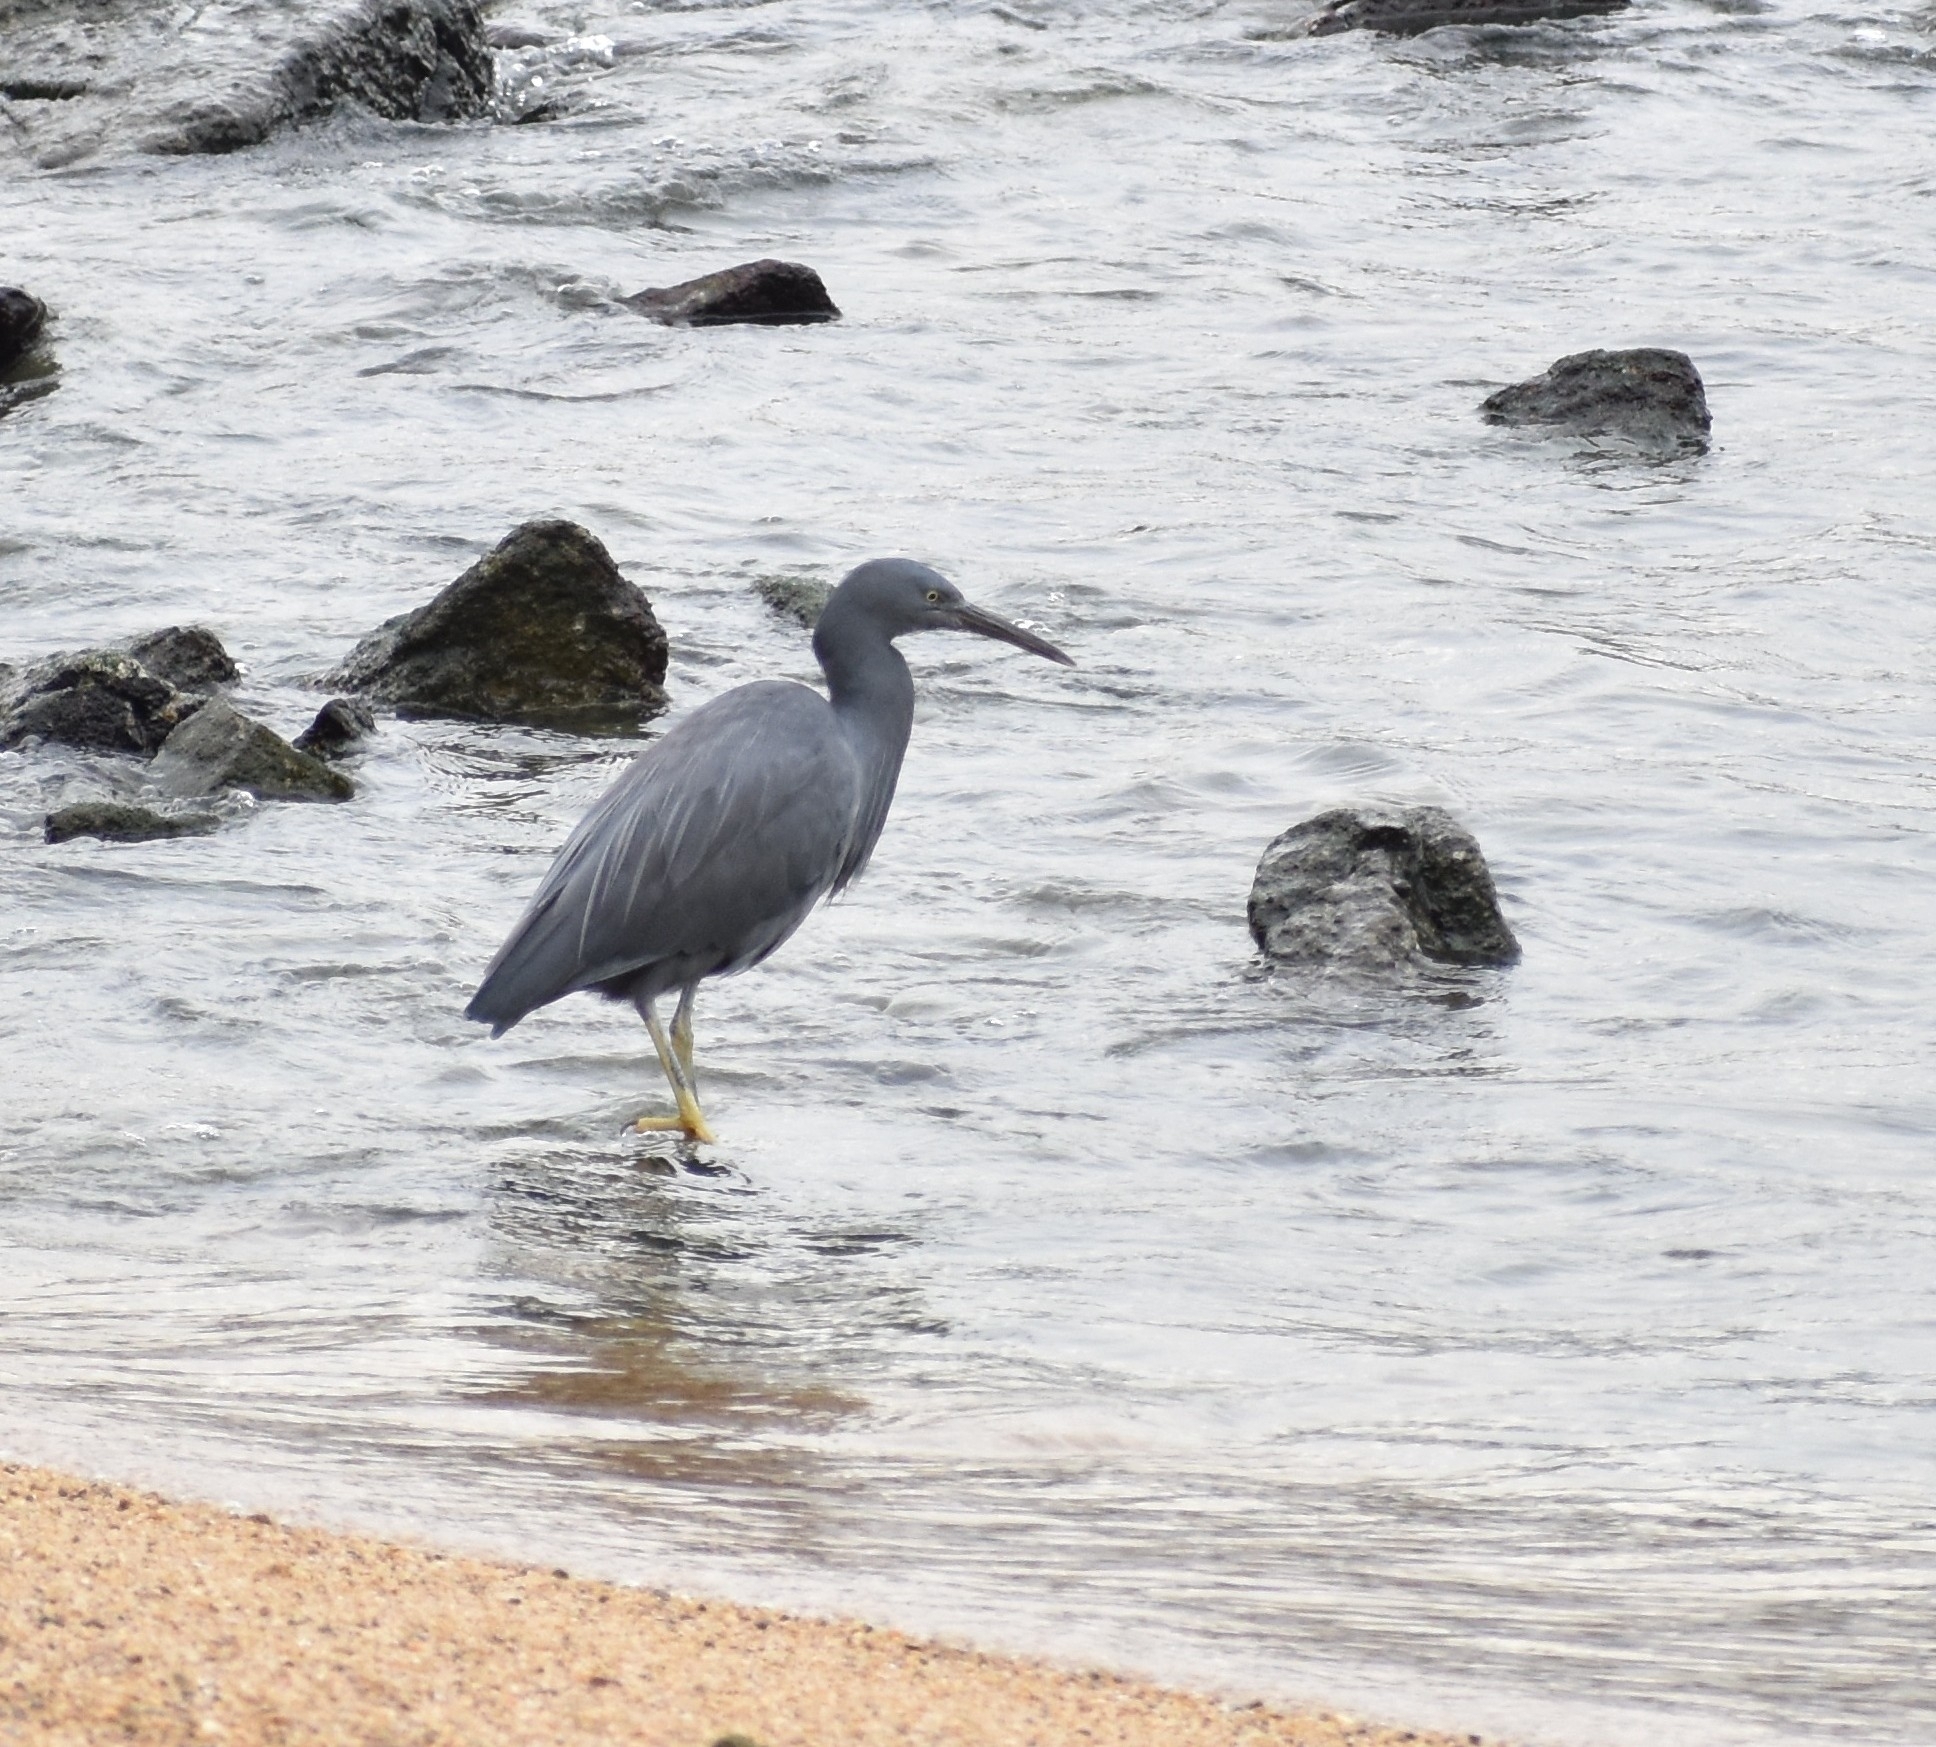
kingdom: Animalia
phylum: Chordata
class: Aves
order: Pelecaniformes
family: Ardeidae
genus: Egretta
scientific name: Egretta sacra
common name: Pacific reef heron
